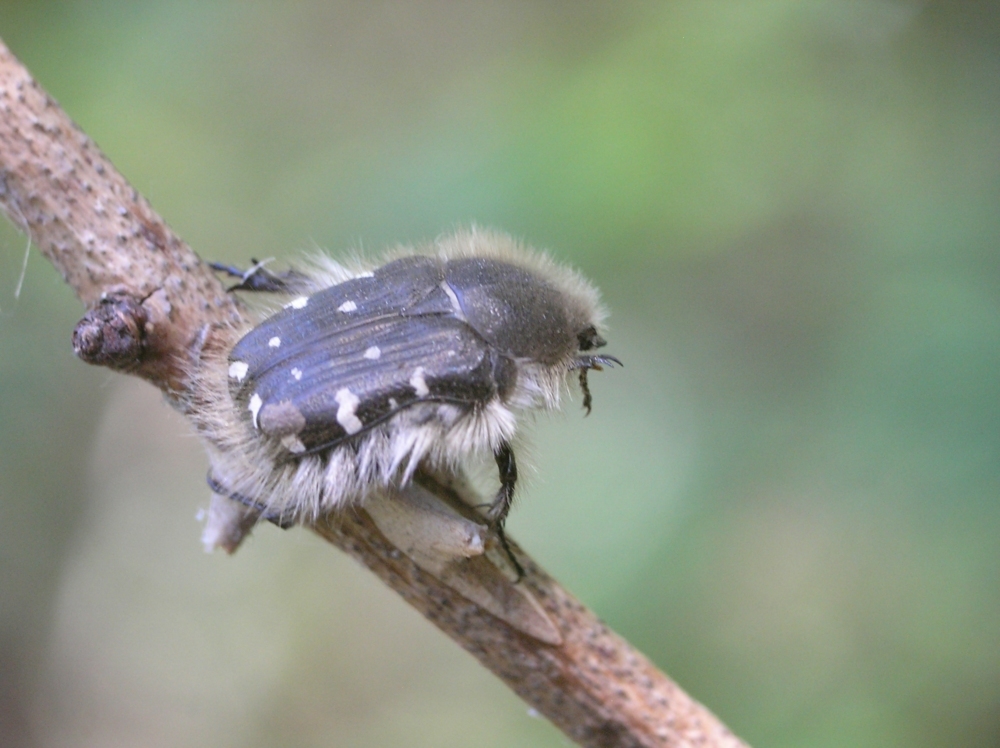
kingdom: Animalia
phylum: Arthropoda
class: Insecta
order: Coleoptera
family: Scarabaeidae
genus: Tropinota
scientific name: Tropinota hirta
